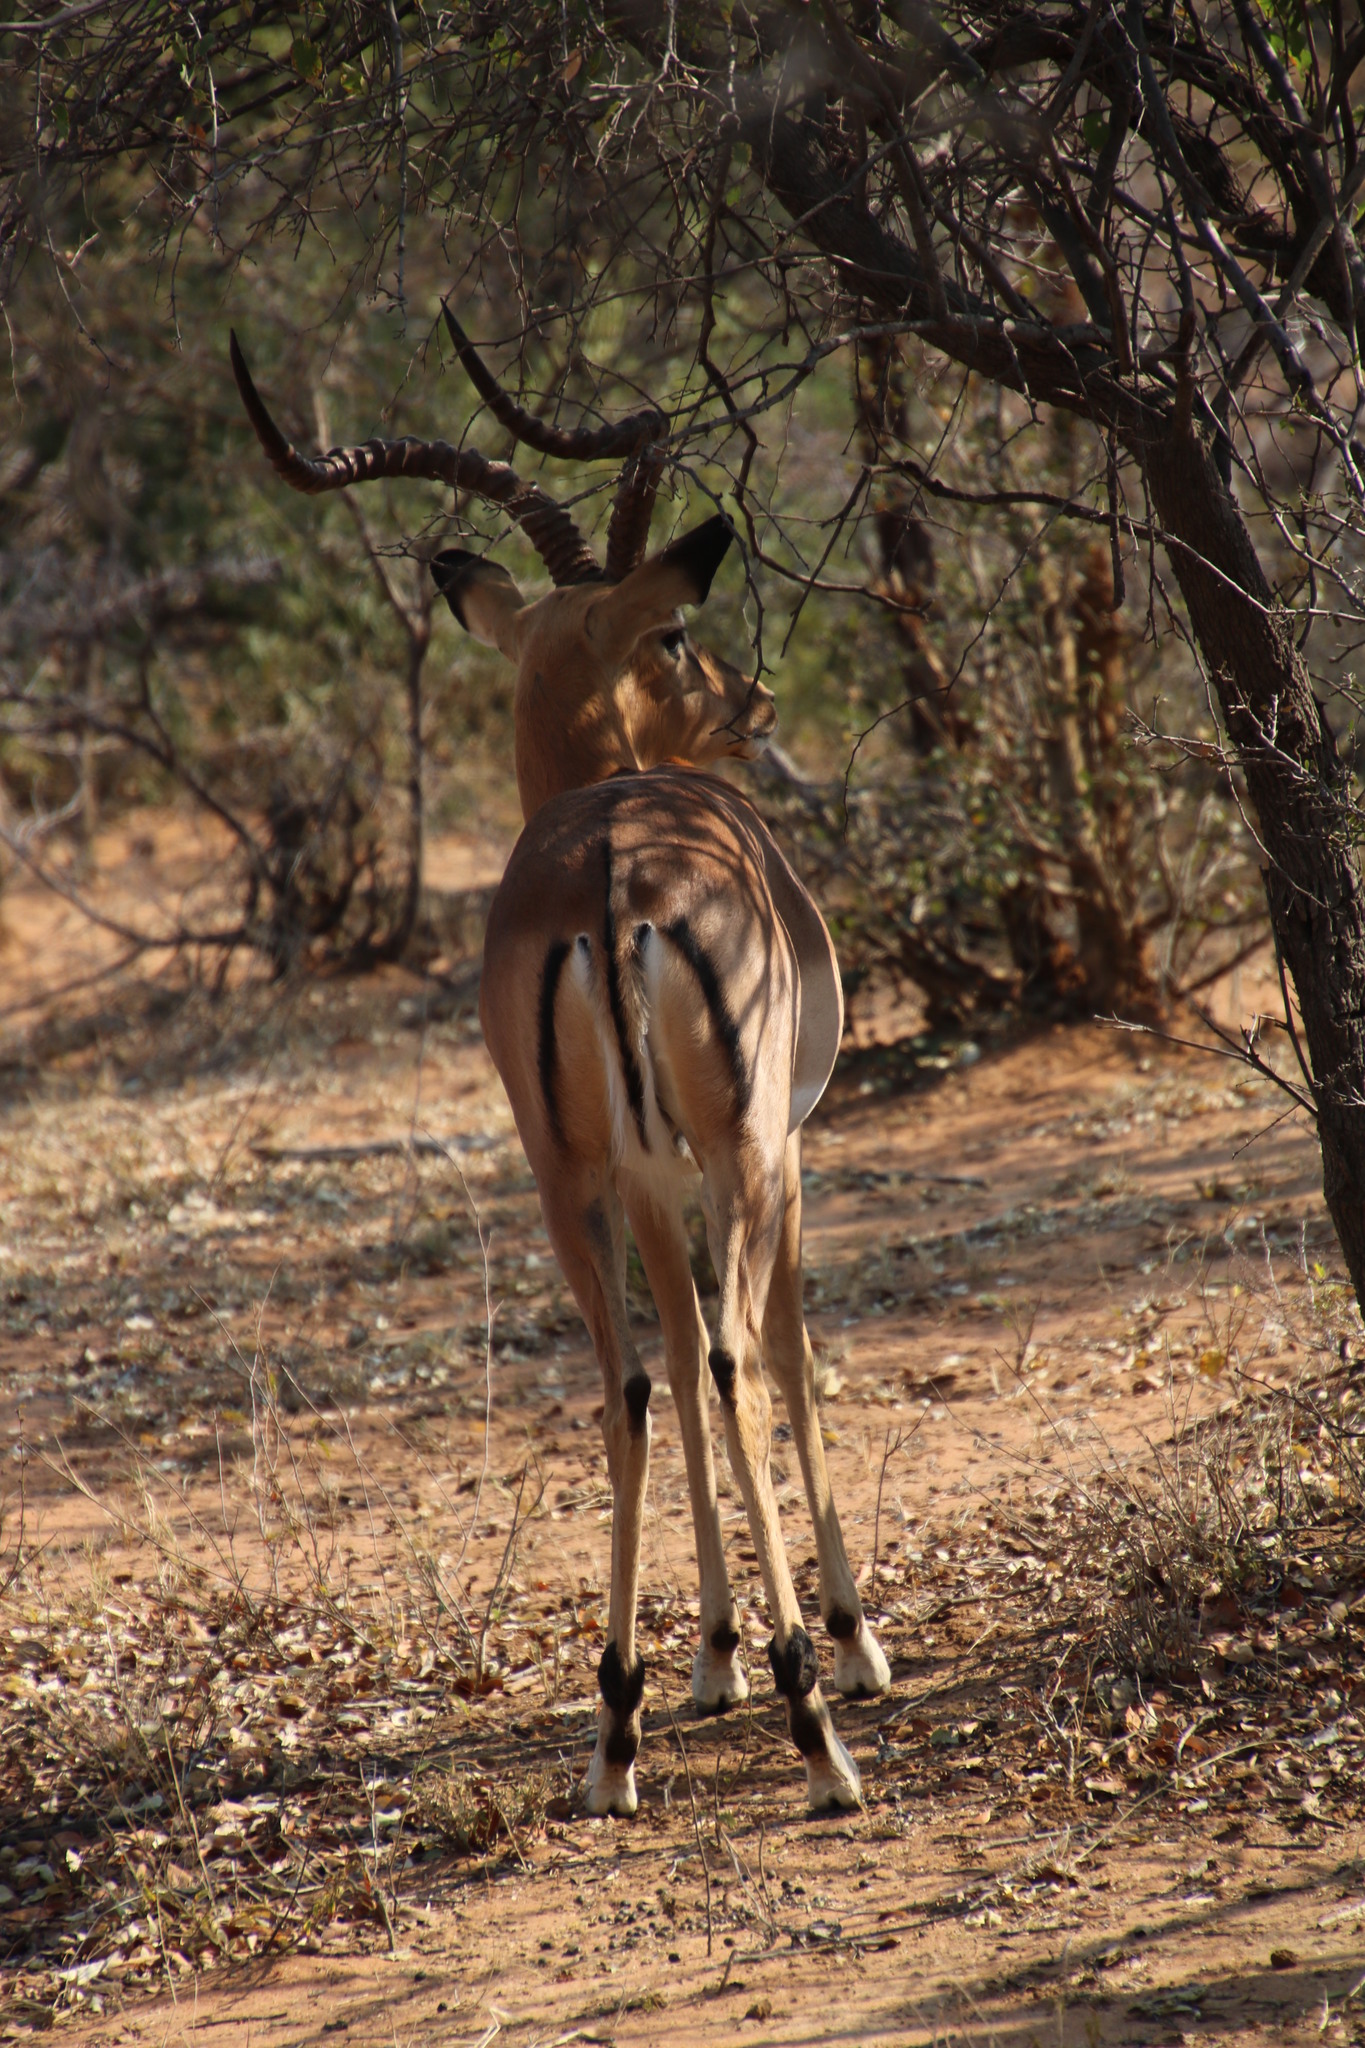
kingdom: Animalia
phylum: Chordata
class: Mammalia
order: Artiodactyla
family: Bovidae
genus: Aepyceros
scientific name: Aepyceros melampus
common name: Impala
